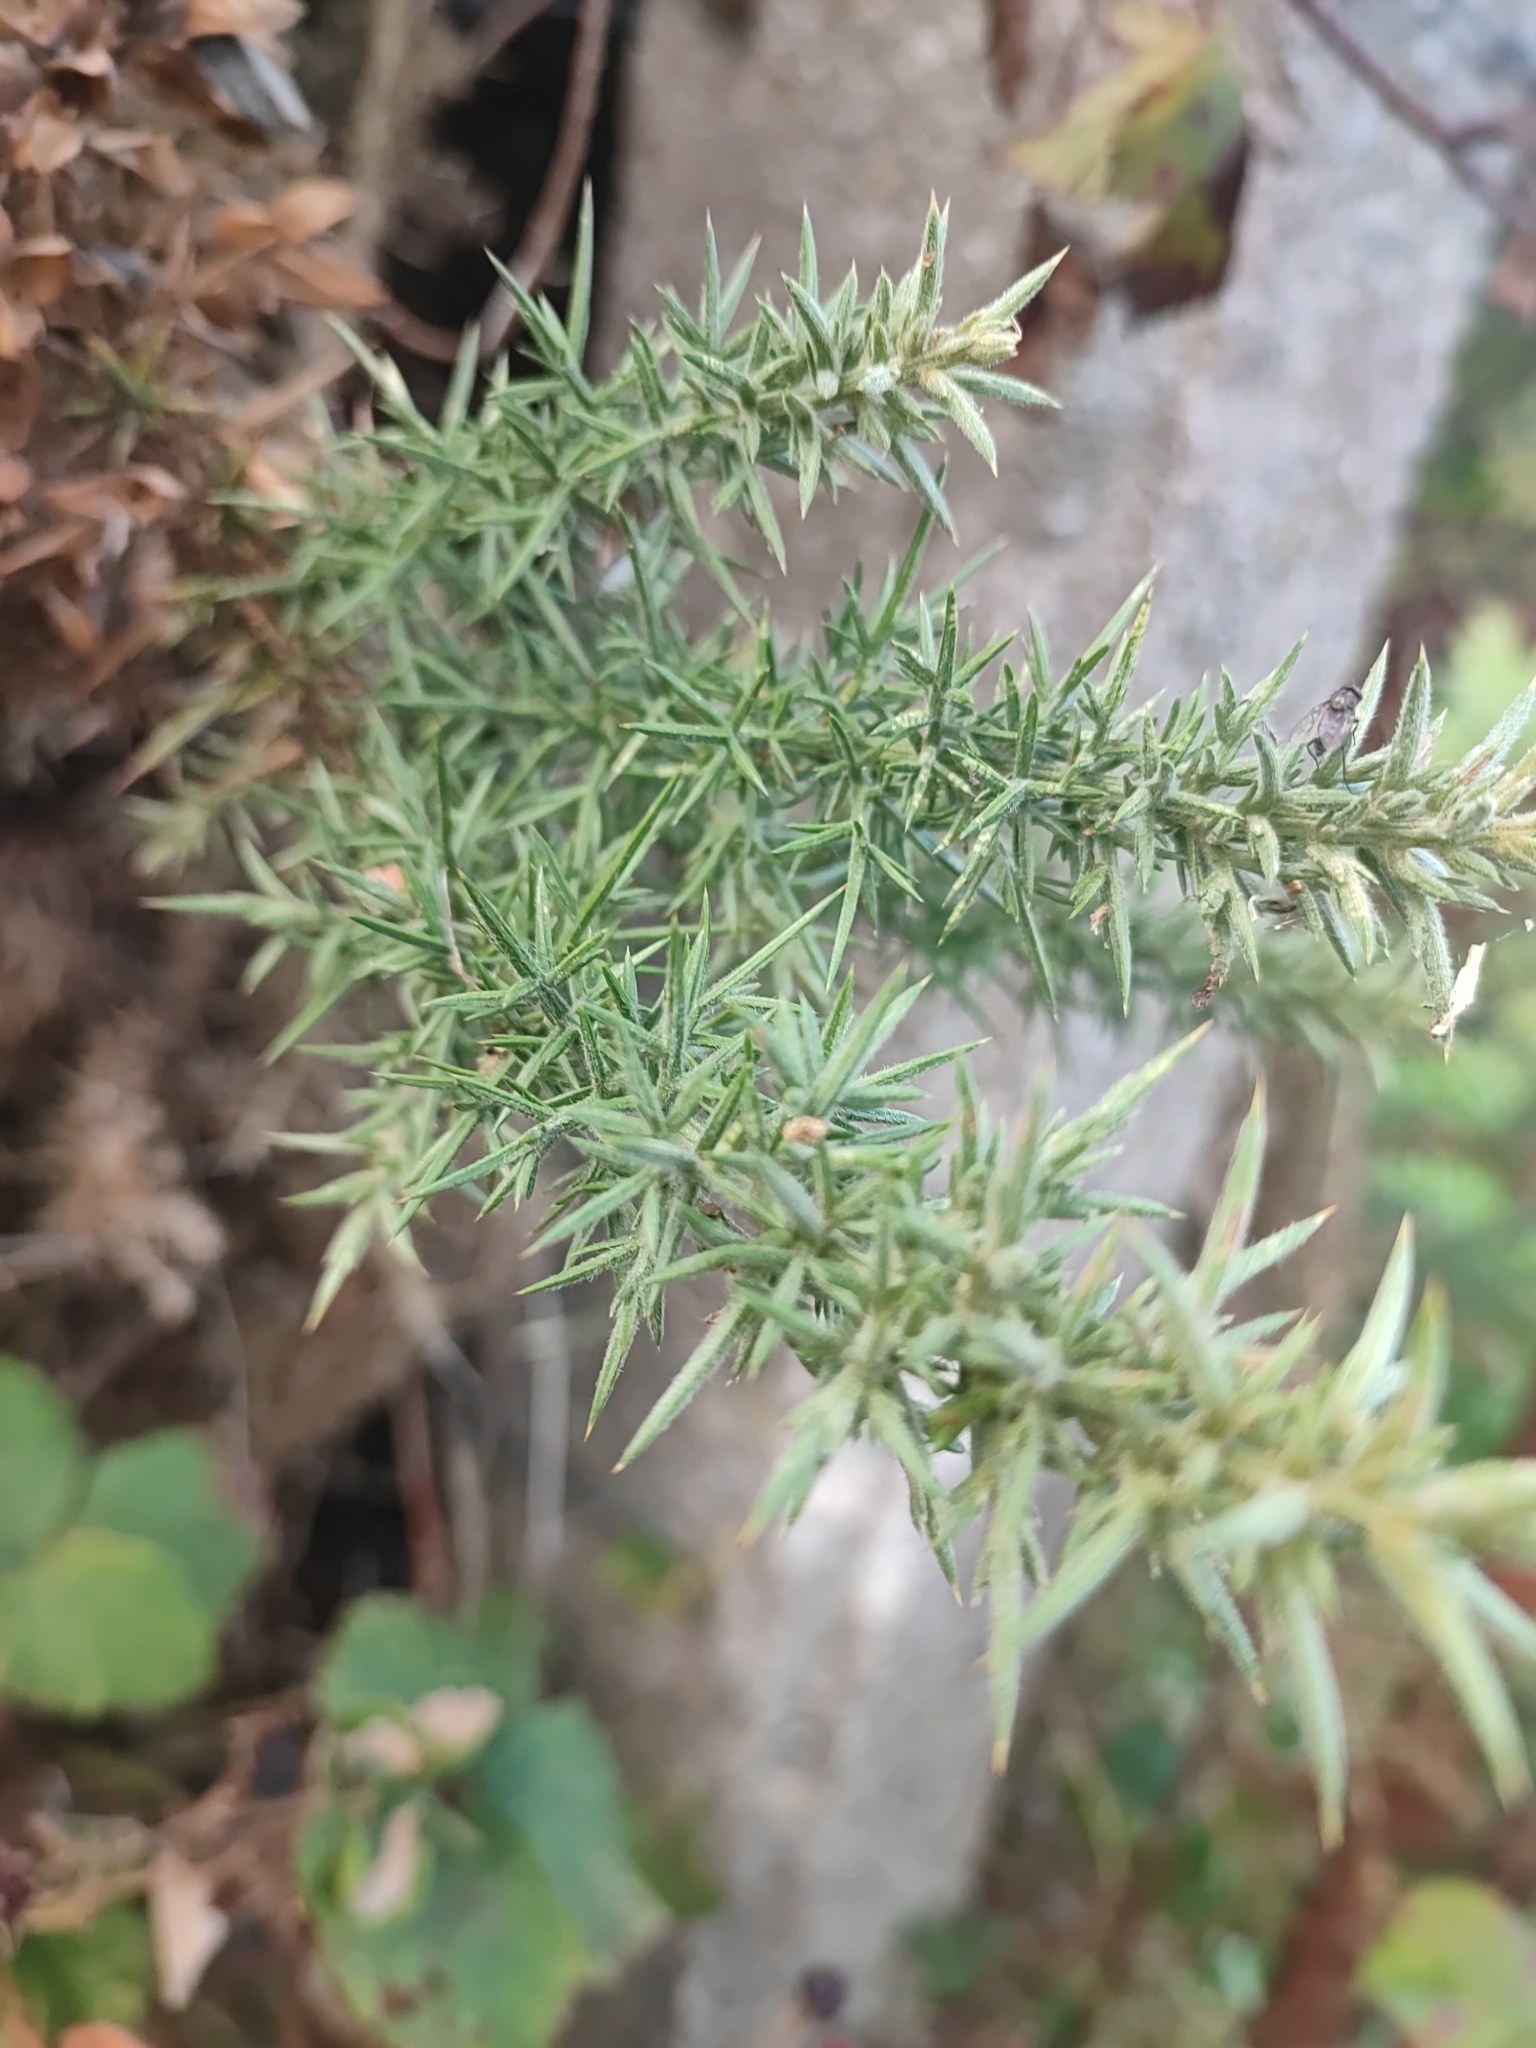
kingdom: Plantae
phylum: Tracheophyta
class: Magnoliopsida
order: Fabales
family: Fabaceae
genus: Ulex
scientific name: Ulex europaeus
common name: Common gorse
